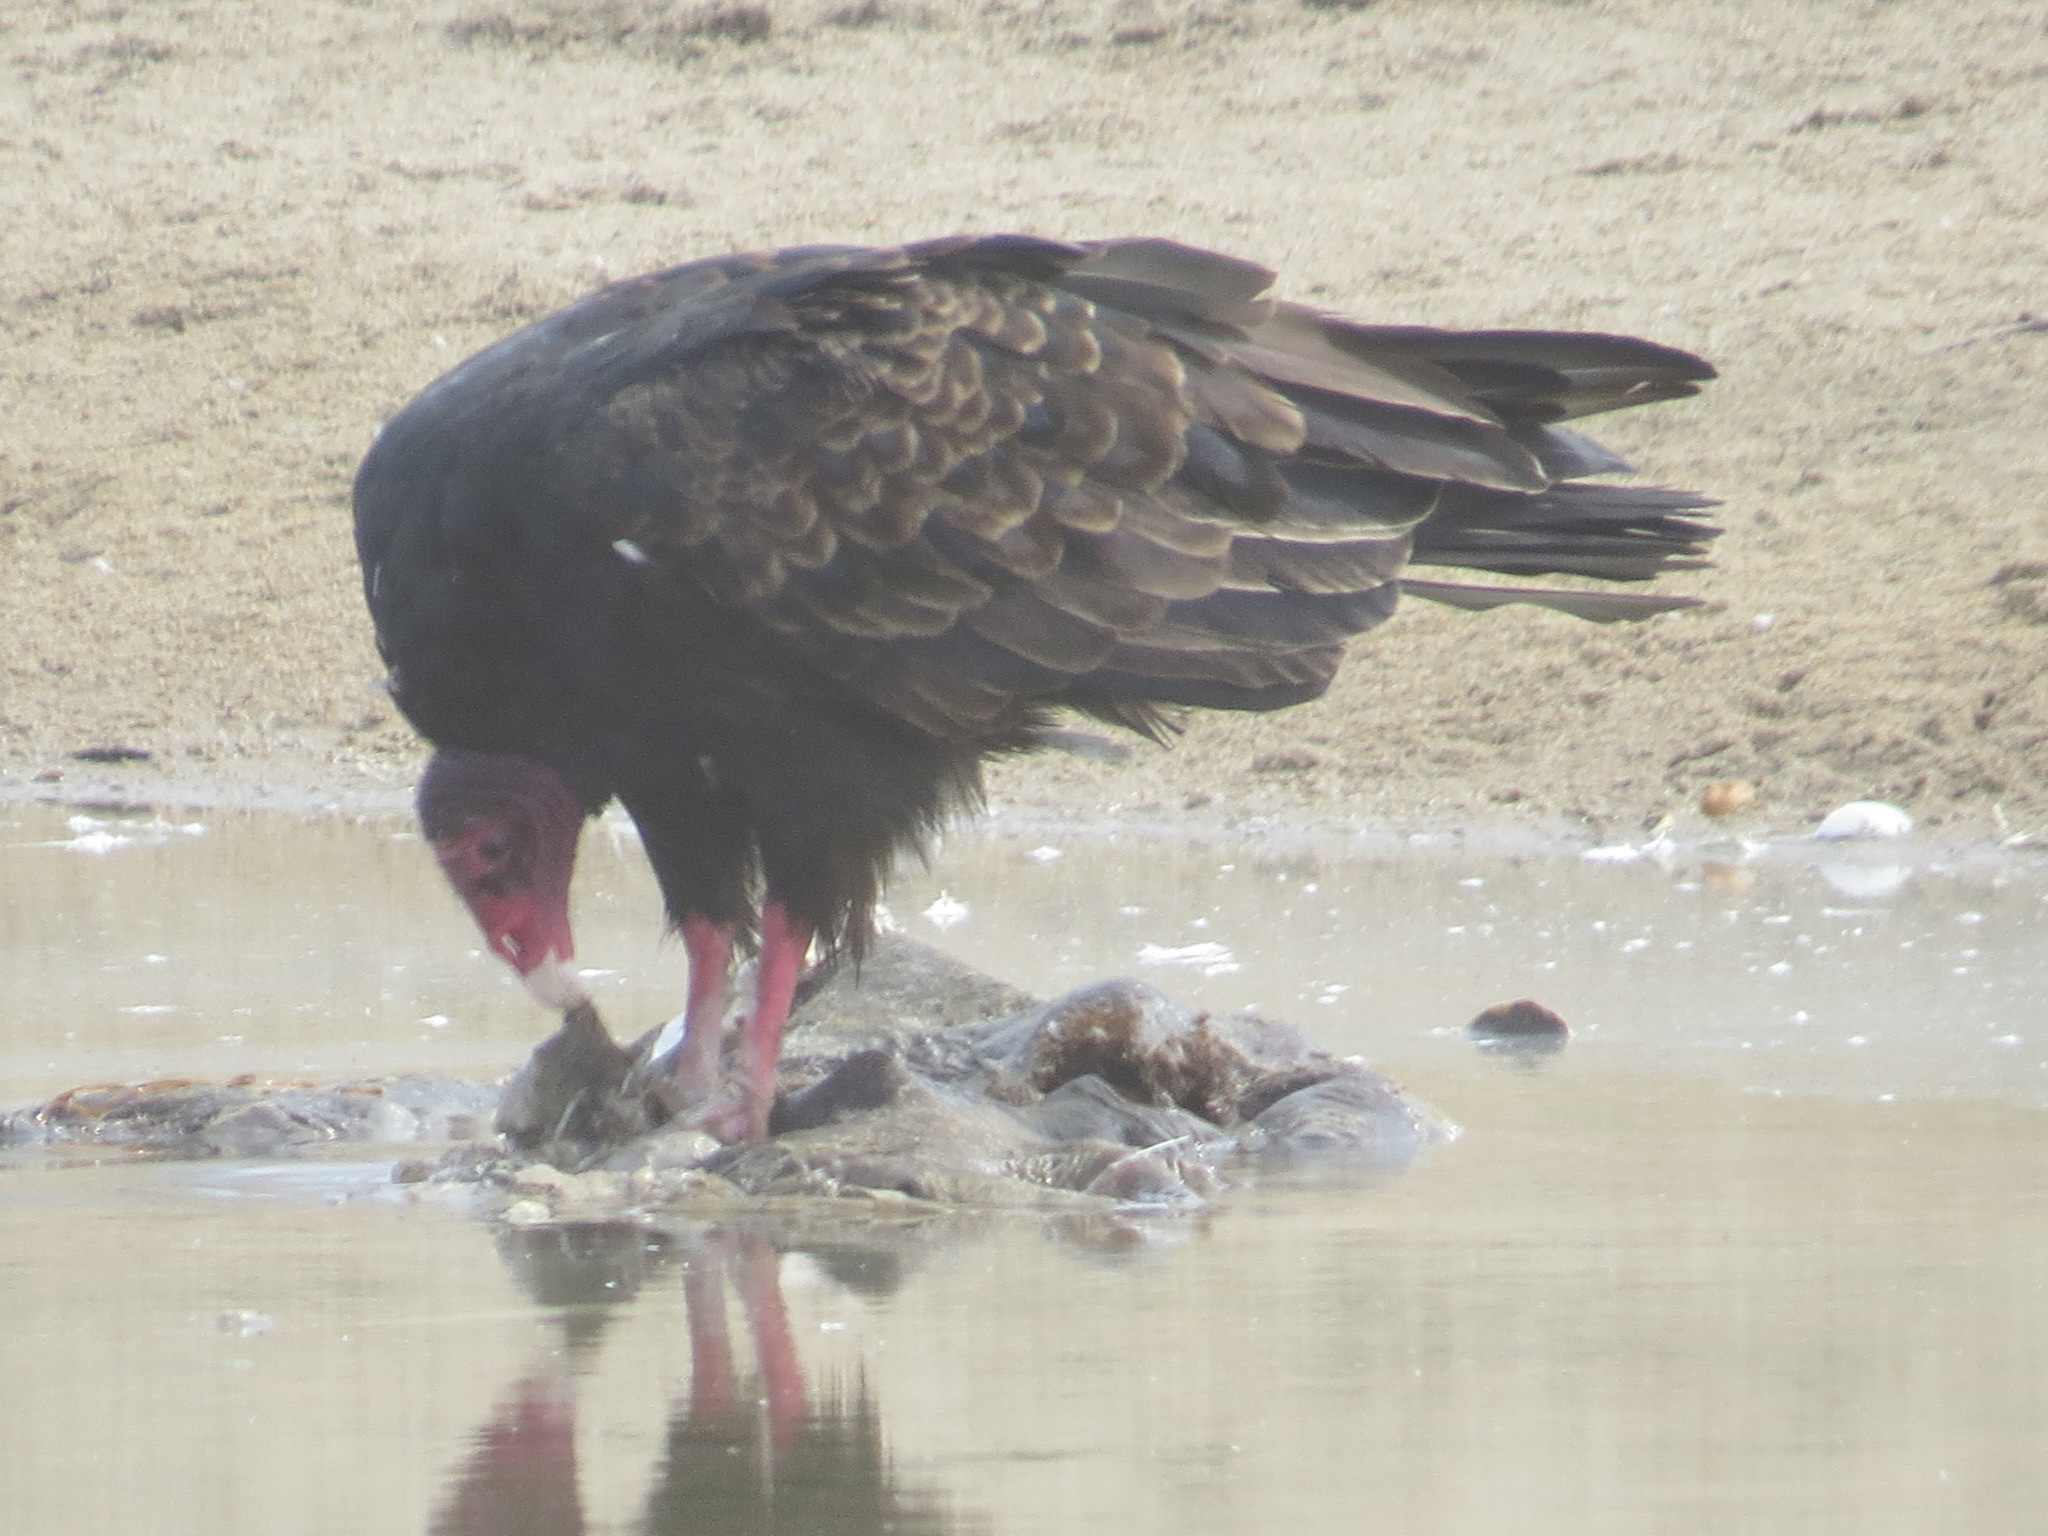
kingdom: Animalia
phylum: Chordata
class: Aves
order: Accipitriformes
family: Cathartidae
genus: Cathartes
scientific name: Cathartes aura
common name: Turkey vulture
